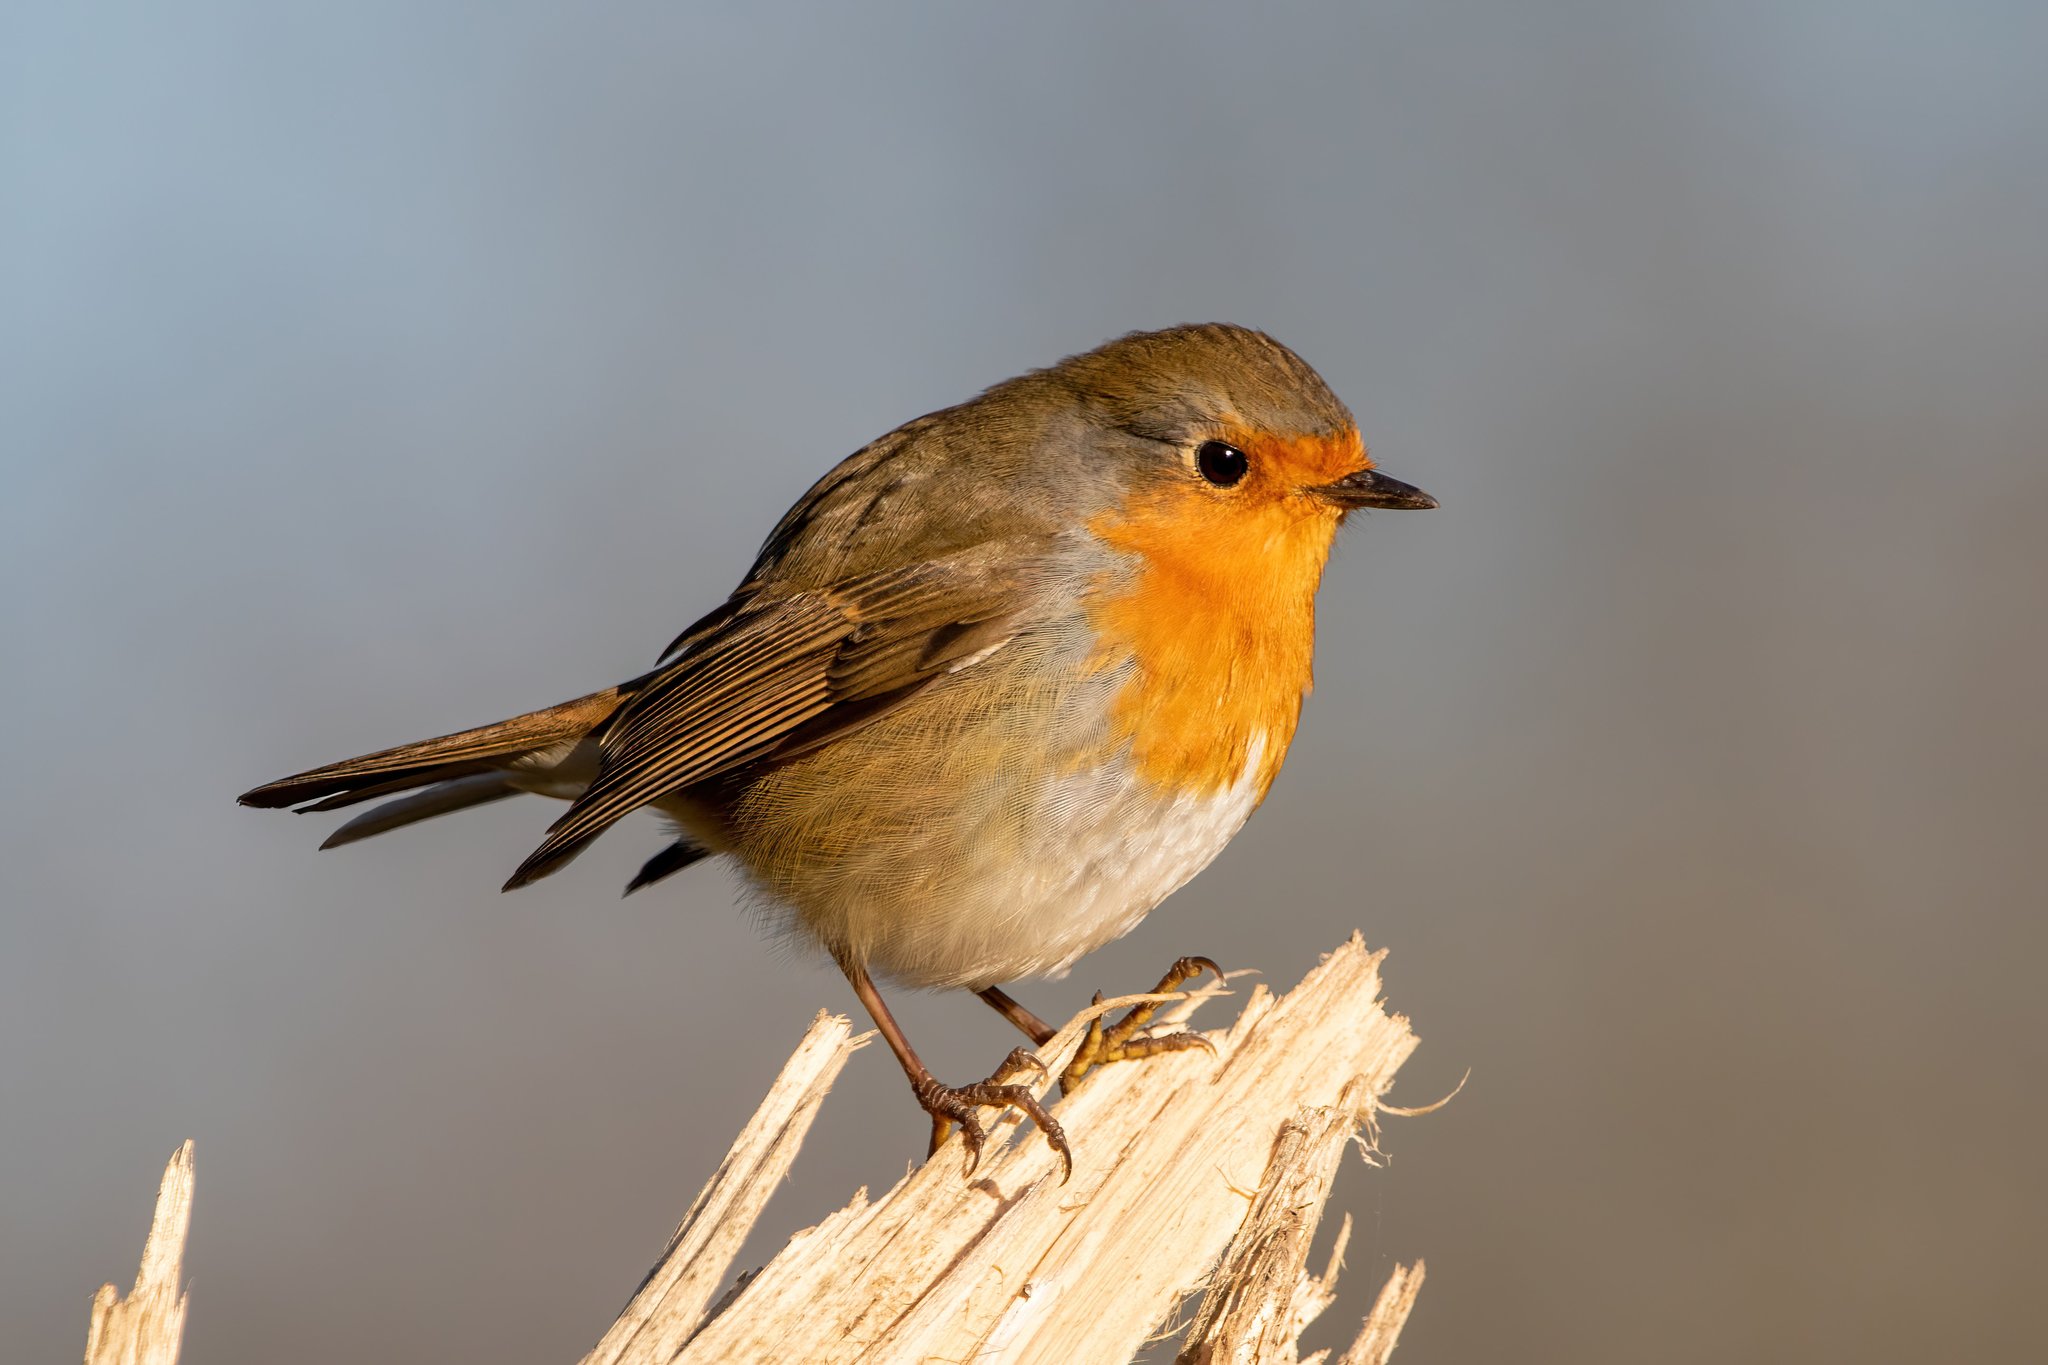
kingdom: Animalia
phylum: Chordata
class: Aves
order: Passeriformes
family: Muscicapidae
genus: Erithacus
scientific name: Erithacus rubecula
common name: European robin
